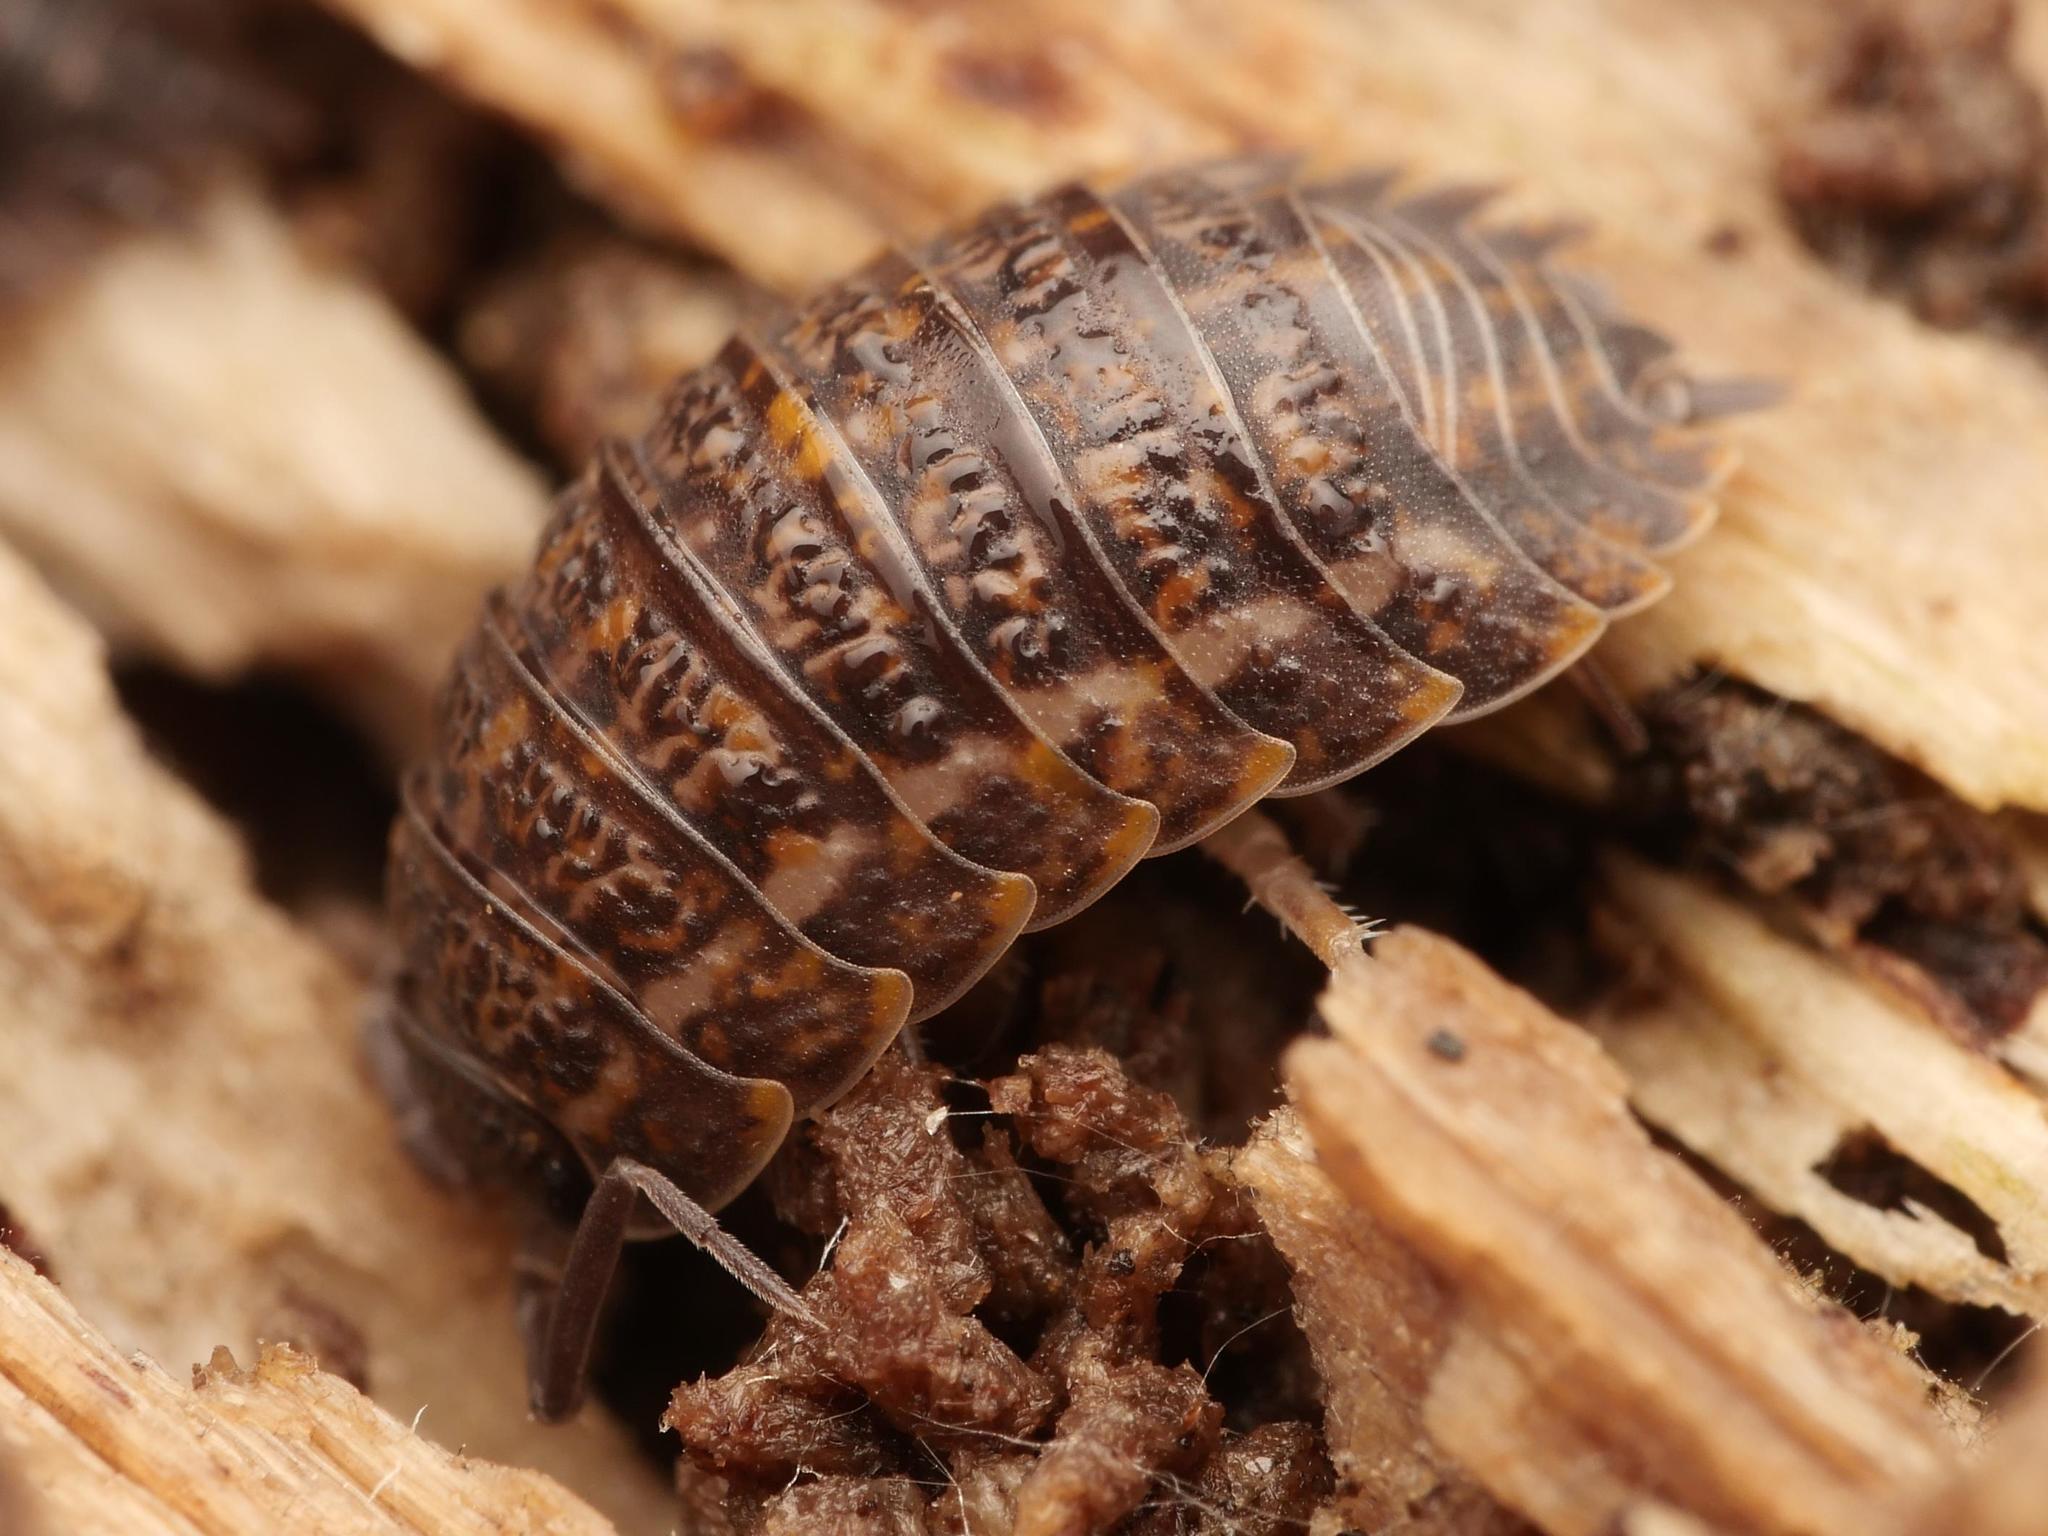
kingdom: Animalia
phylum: Arthropoda
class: Malacostraca
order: Isopoda
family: Trachelipodidae
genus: Trachelipus
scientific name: Trachelipus rathkii
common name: Isopod
